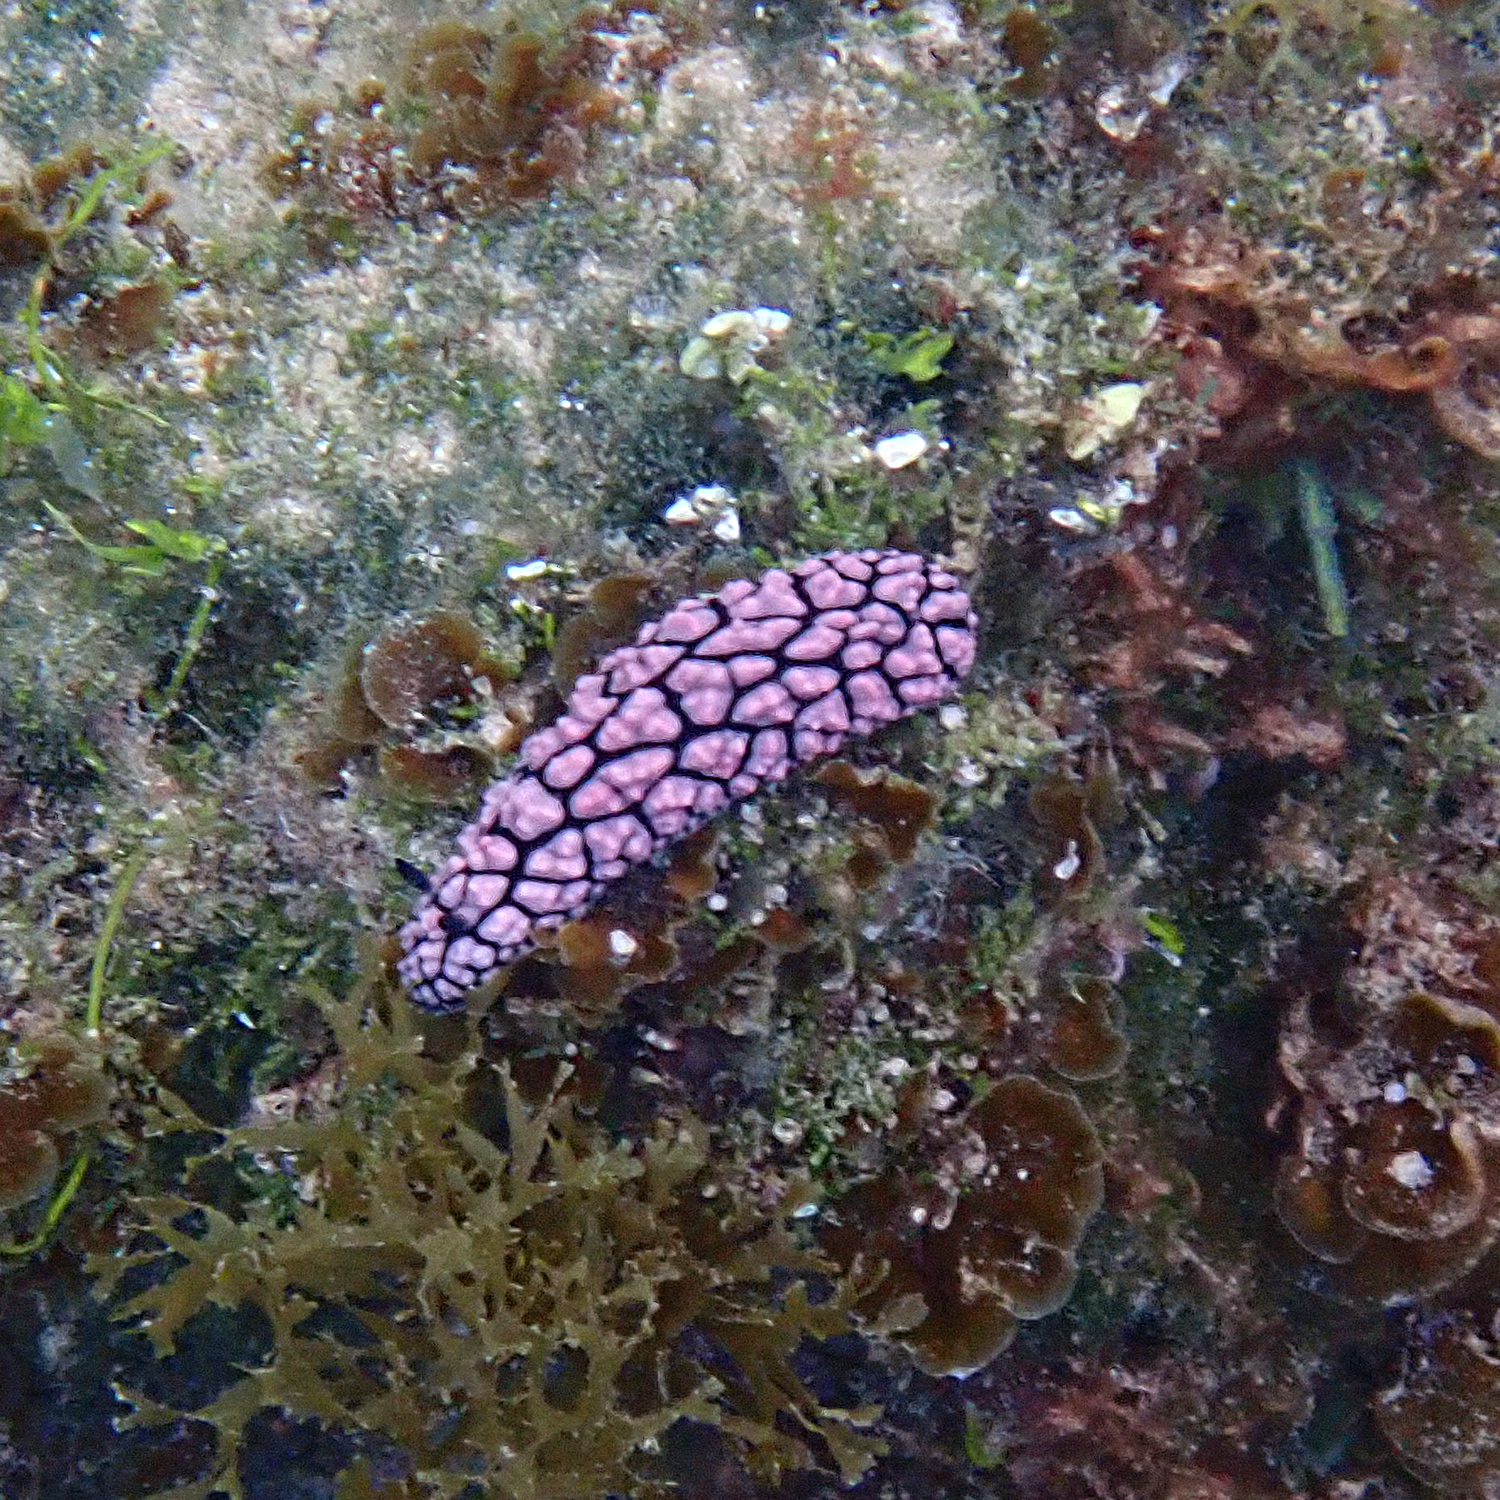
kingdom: Animalia
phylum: Mollusca
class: Gastropoda
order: Nudibranchia
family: Phyllidiidae
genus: Phyllidiella
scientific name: Phyllidiella pustulosa
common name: Pustular phyllidia
